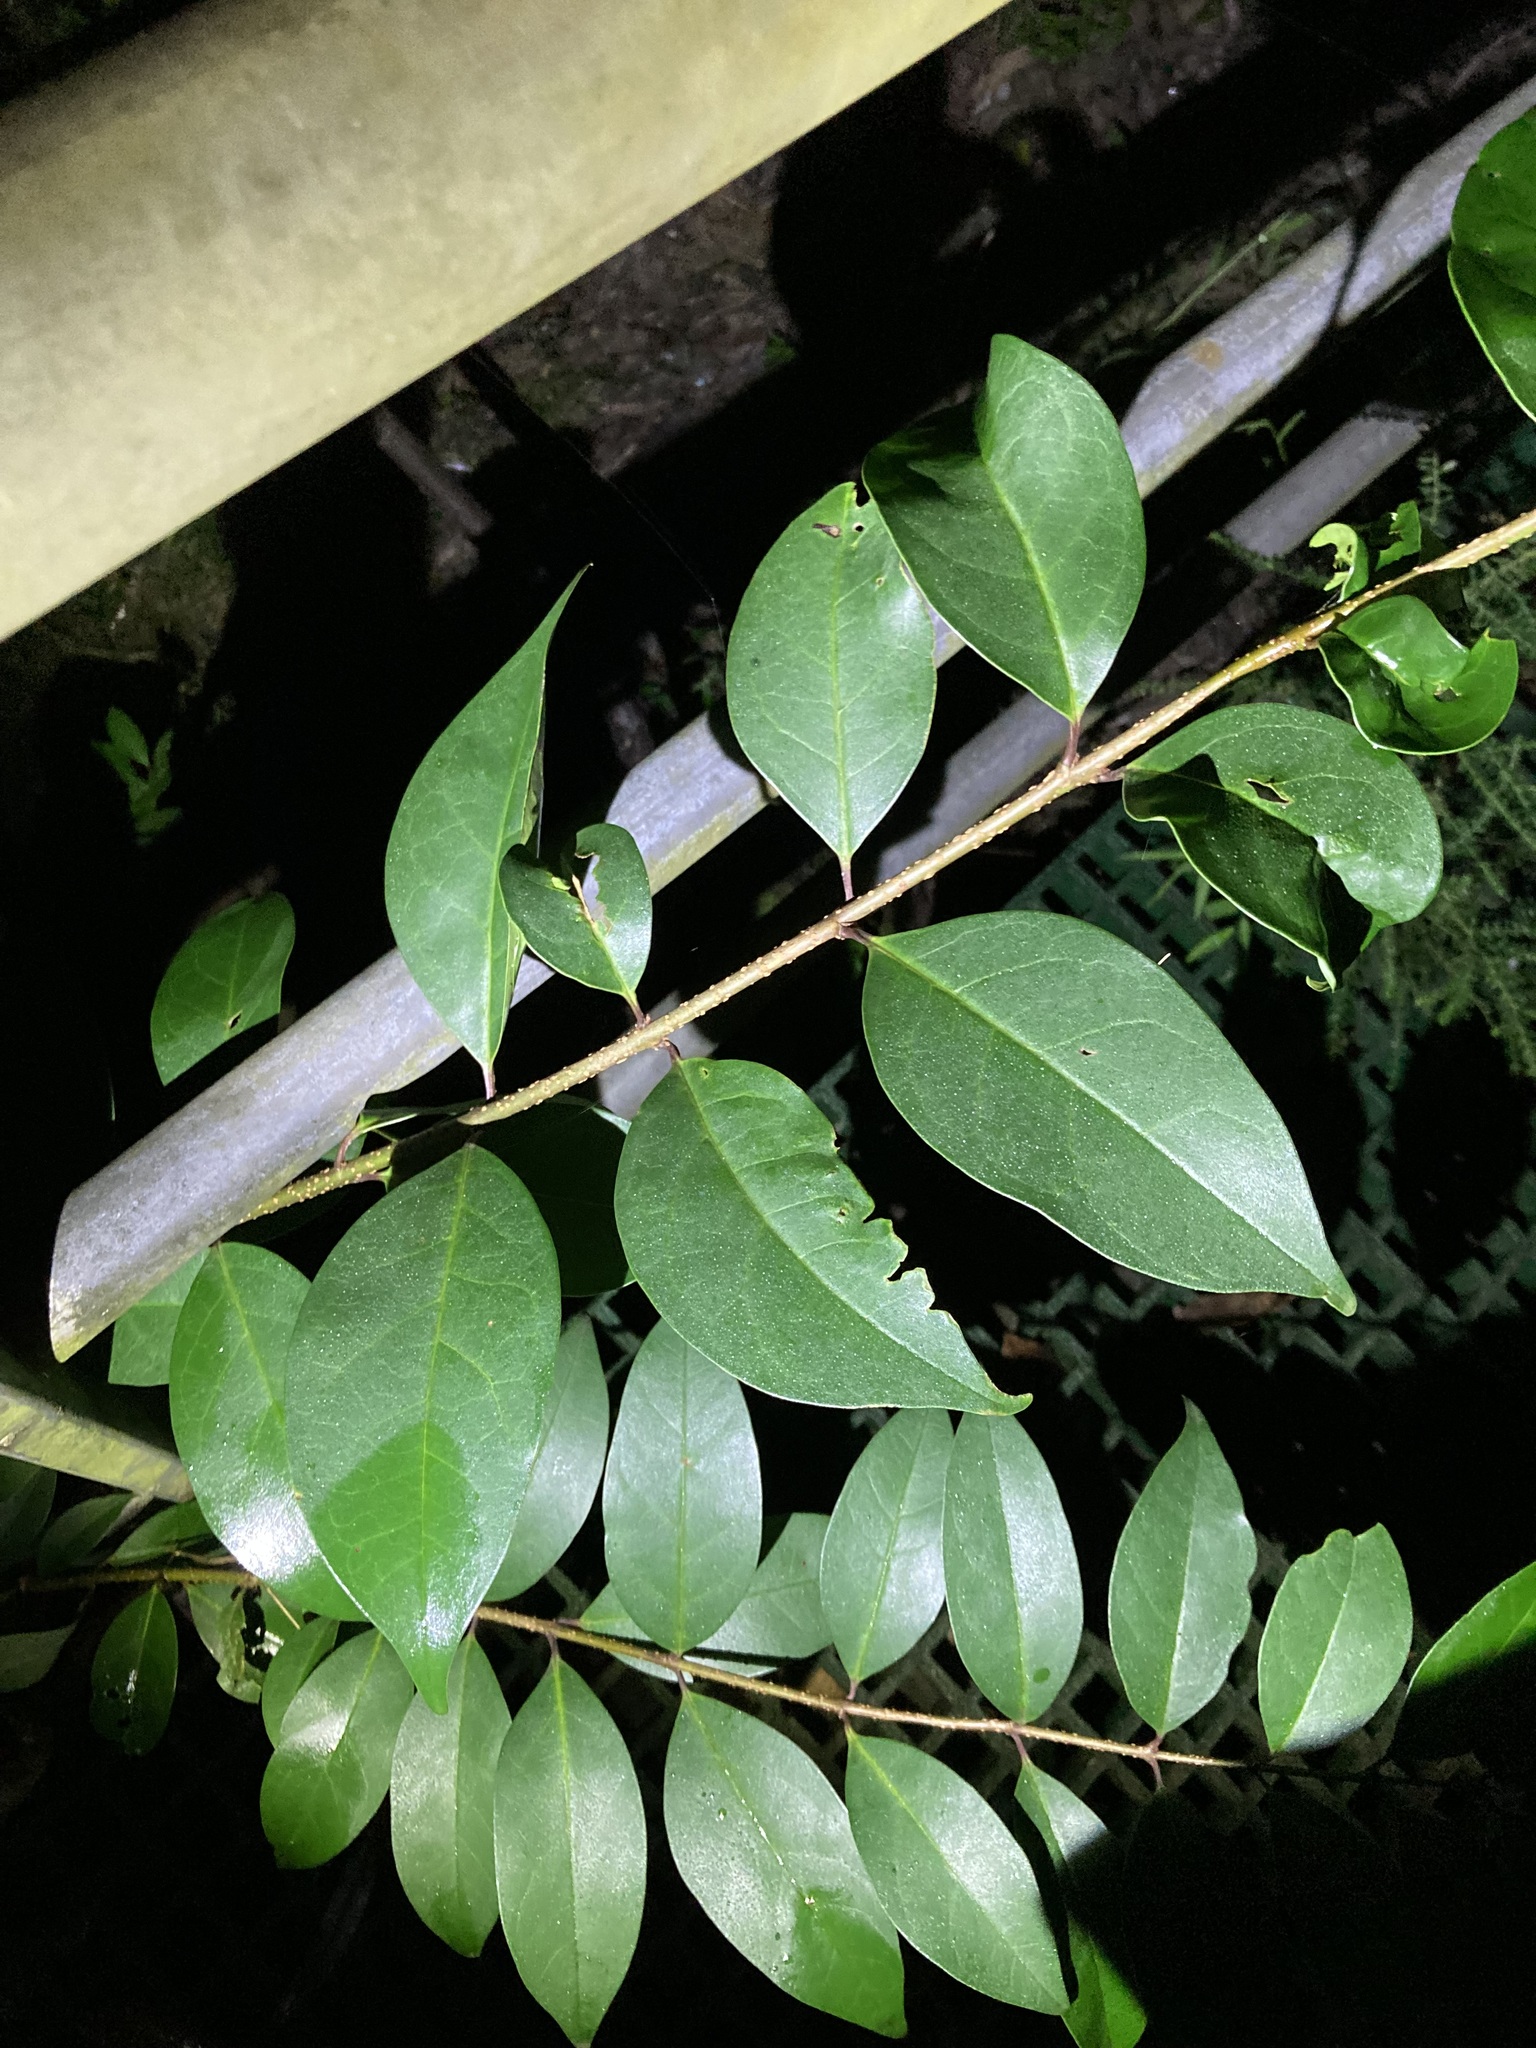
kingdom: Plantae
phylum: Tracheophyta
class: Magnoliopsida
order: Lamiales
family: Oleaceae
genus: Ligustrum
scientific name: Ligustrum lucidum
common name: Glossy privet
